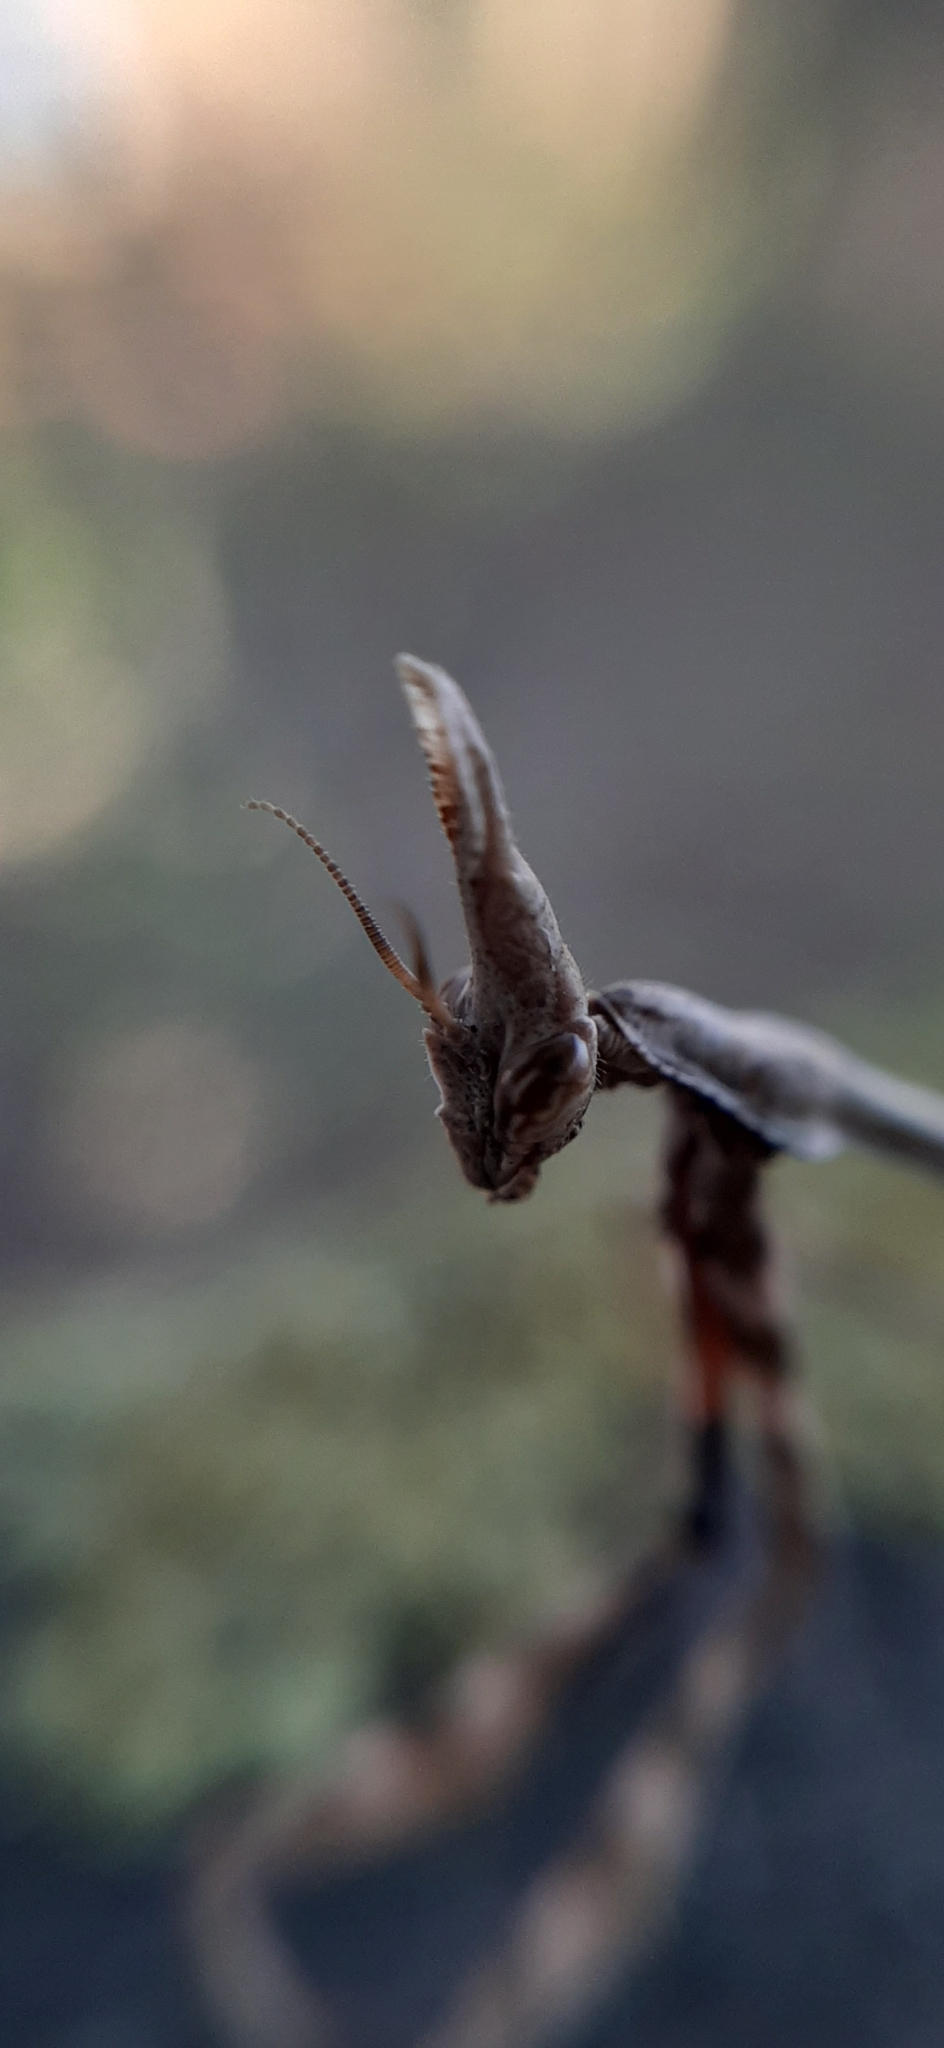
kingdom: Animalia
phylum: Arthropoda
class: Insecta
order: Mantodea
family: Empusidae
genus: Empusa
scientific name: Empusa pennata
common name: Conehead mantis
